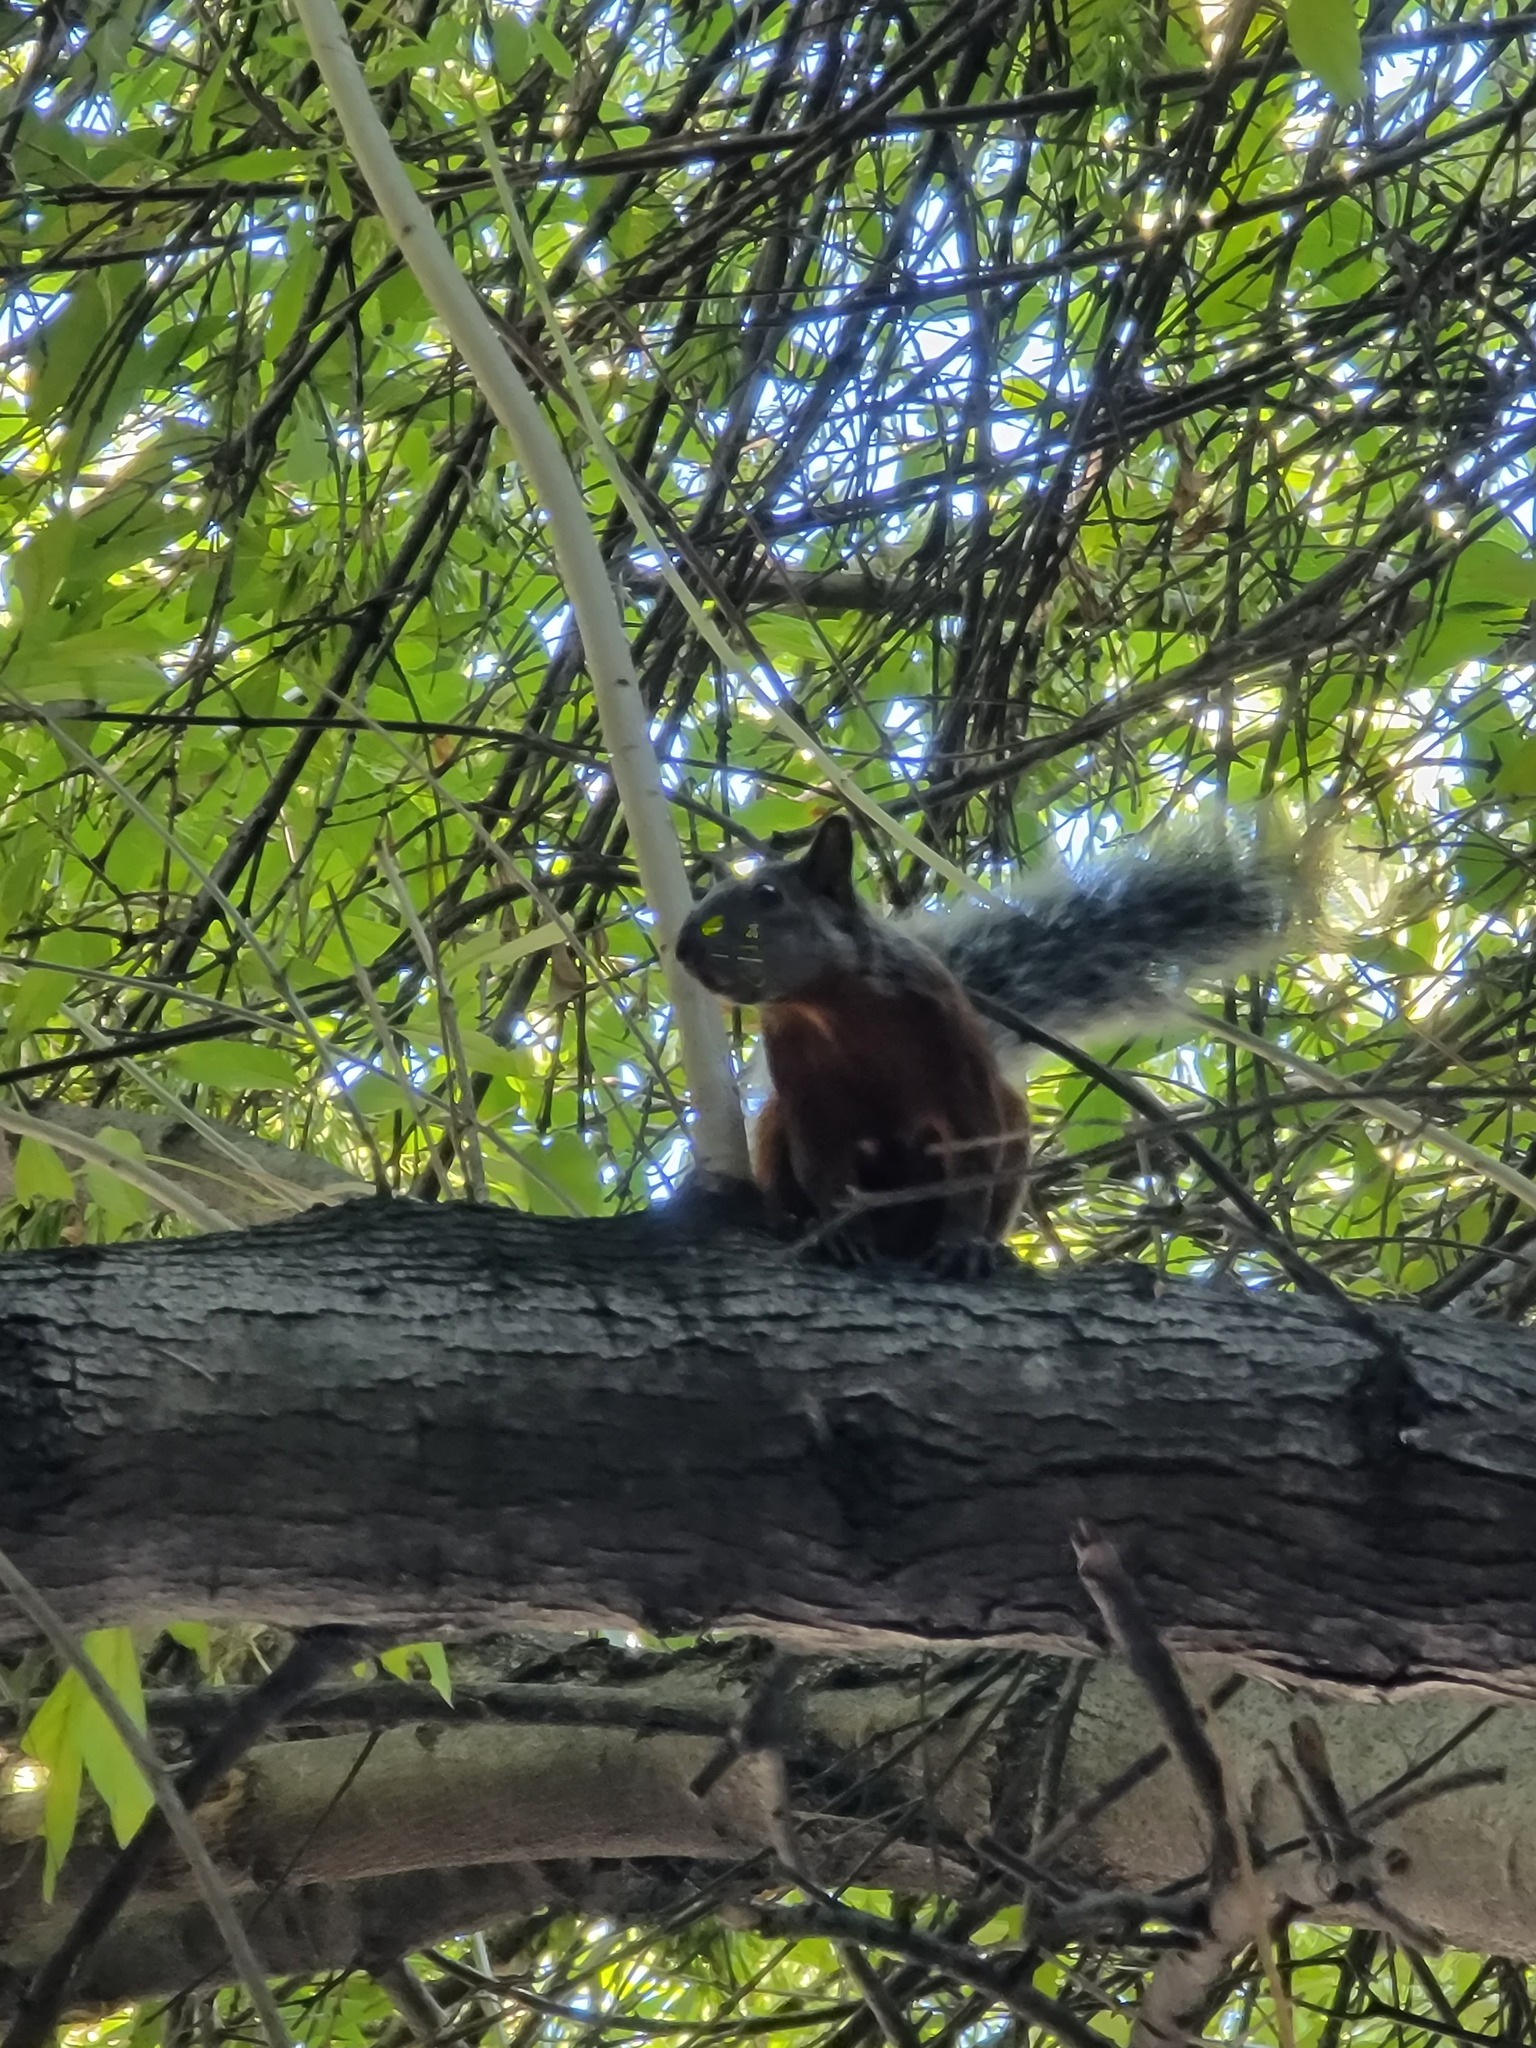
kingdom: Animalia
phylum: Chordata
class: Mammalia
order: Rodentia
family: Sciuridae
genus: Sciurus
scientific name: Sciurus aureogaster
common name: Red-bellied squirrel
